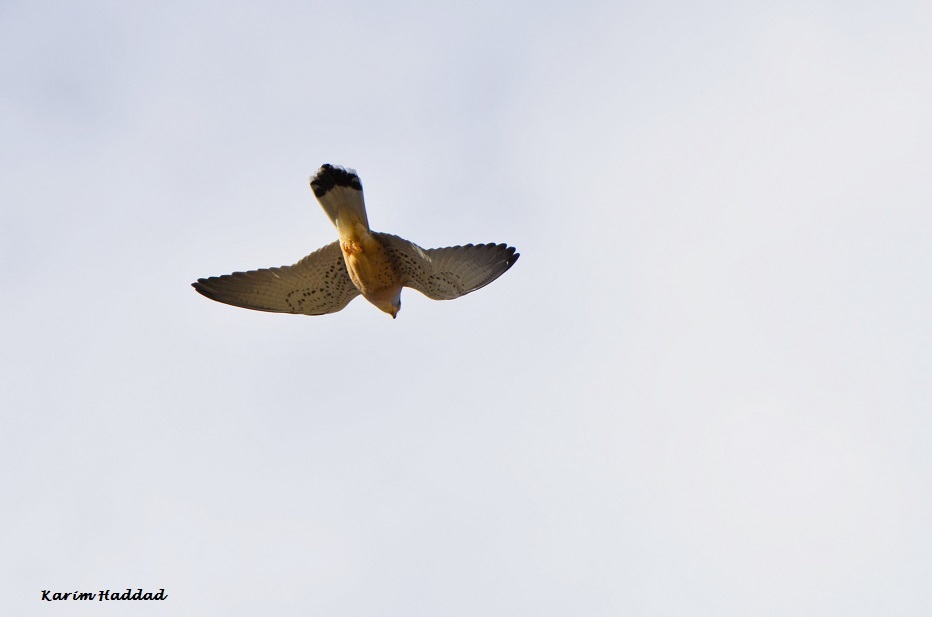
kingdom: Animalia
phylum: Chordata
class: Aves
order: Falconiformes
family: Falconidae
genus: Falco
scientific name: Falco naumanni
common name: Lesser kestrel
